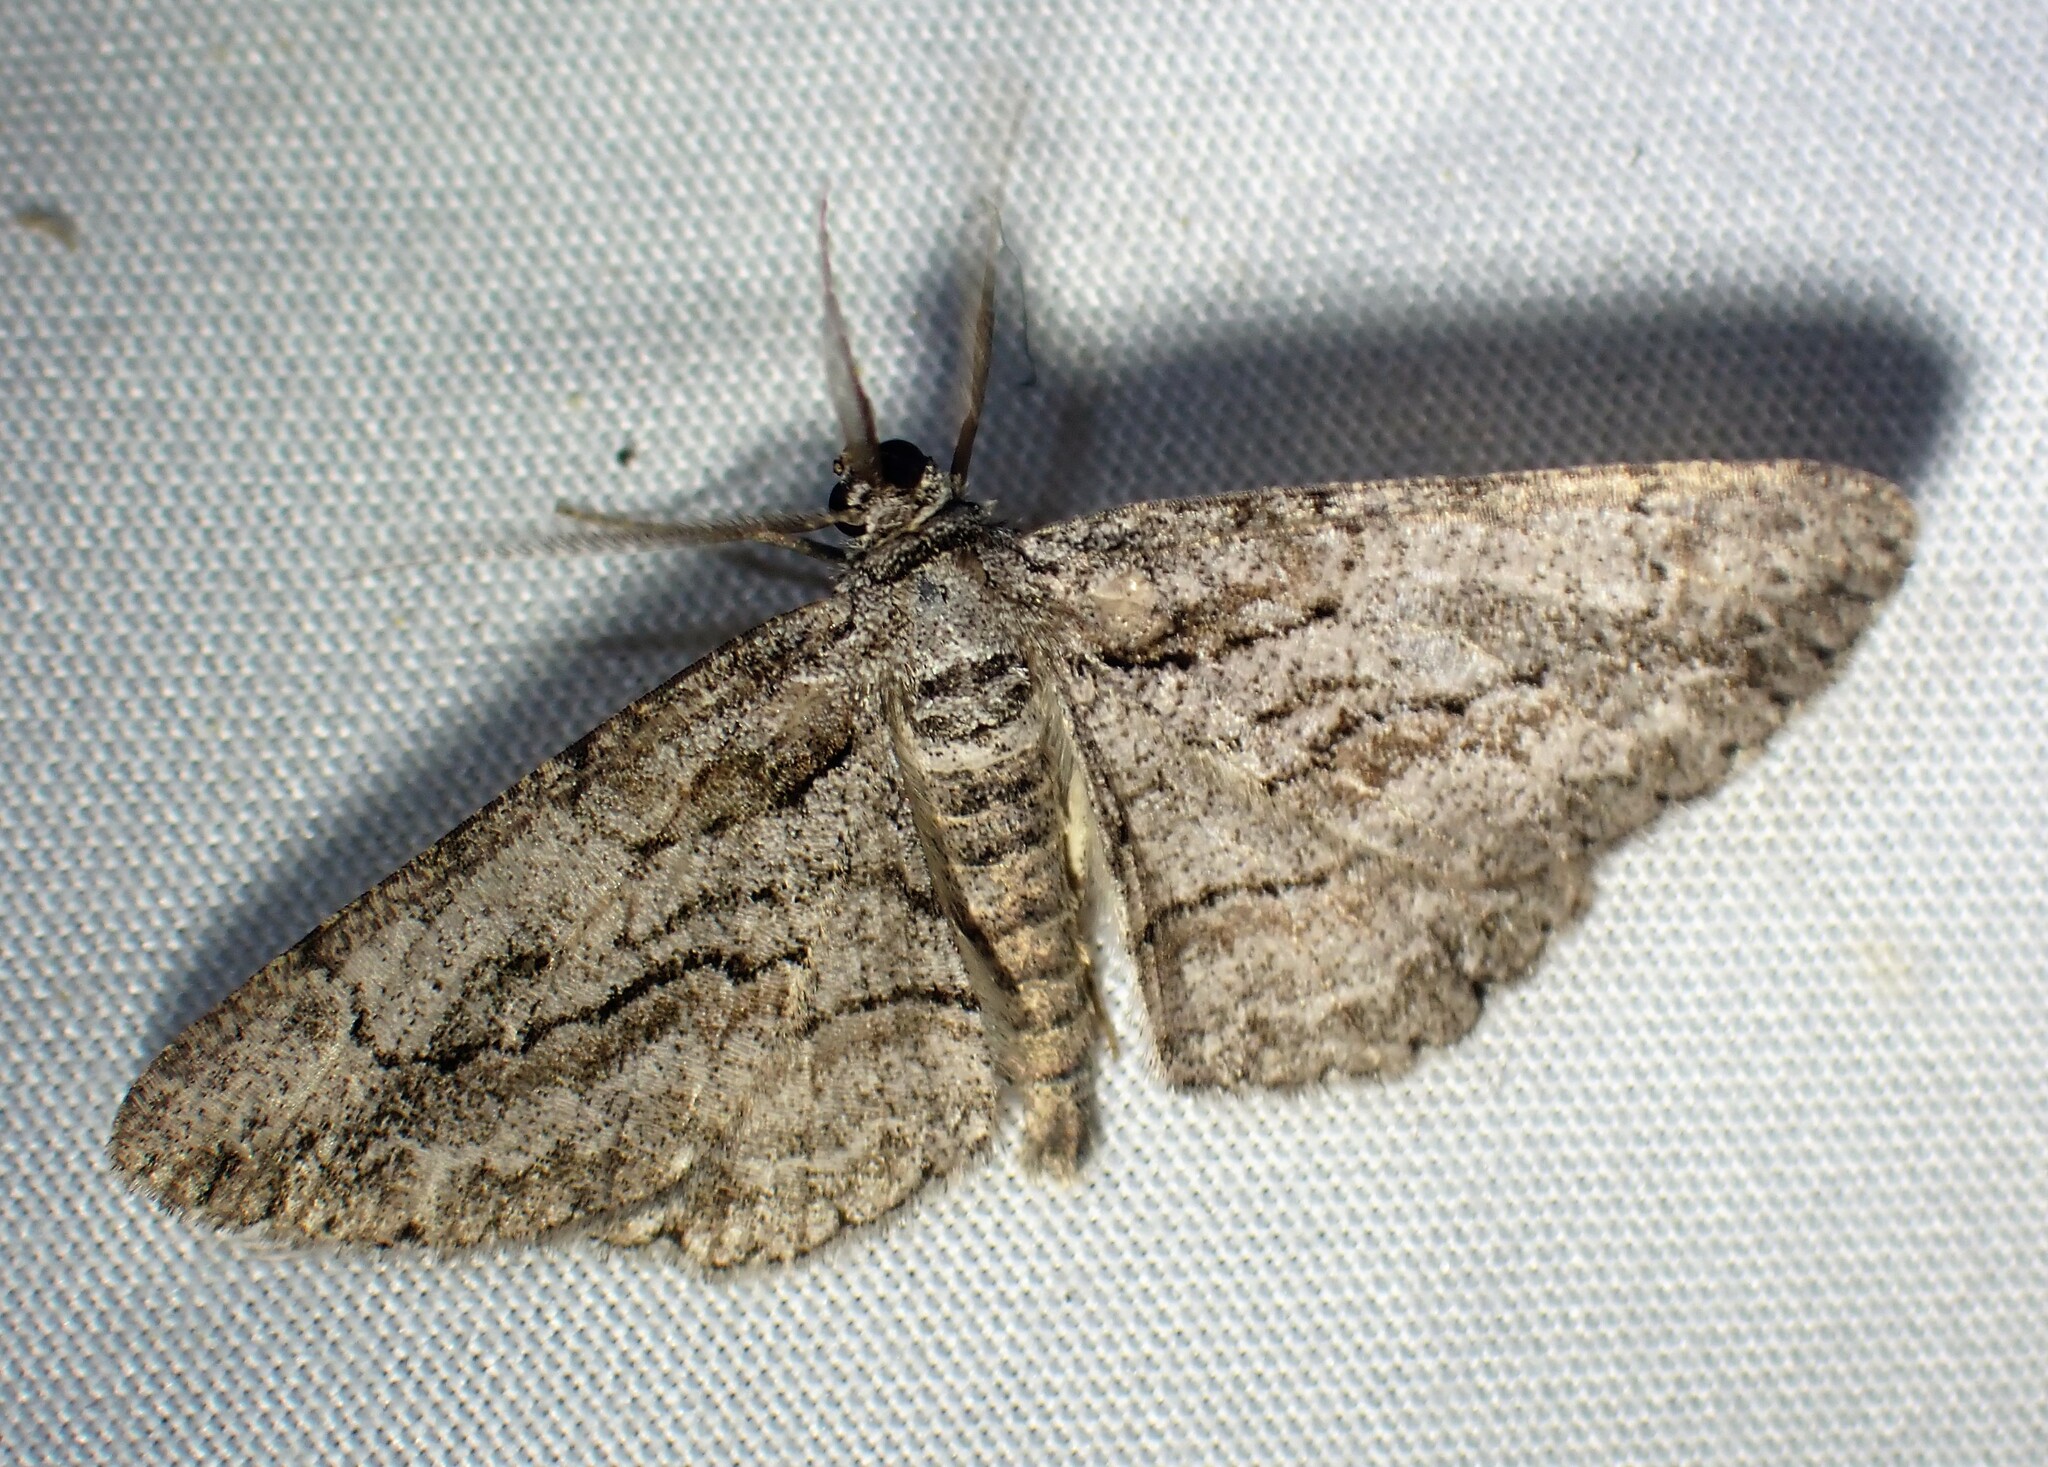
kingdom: Animalia
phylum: Arthropoda
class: Insecta
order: Lepidoptera
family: Geometridae
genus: Anavitrinella
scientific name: Anavitrinella pampinaria
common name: Common gray
